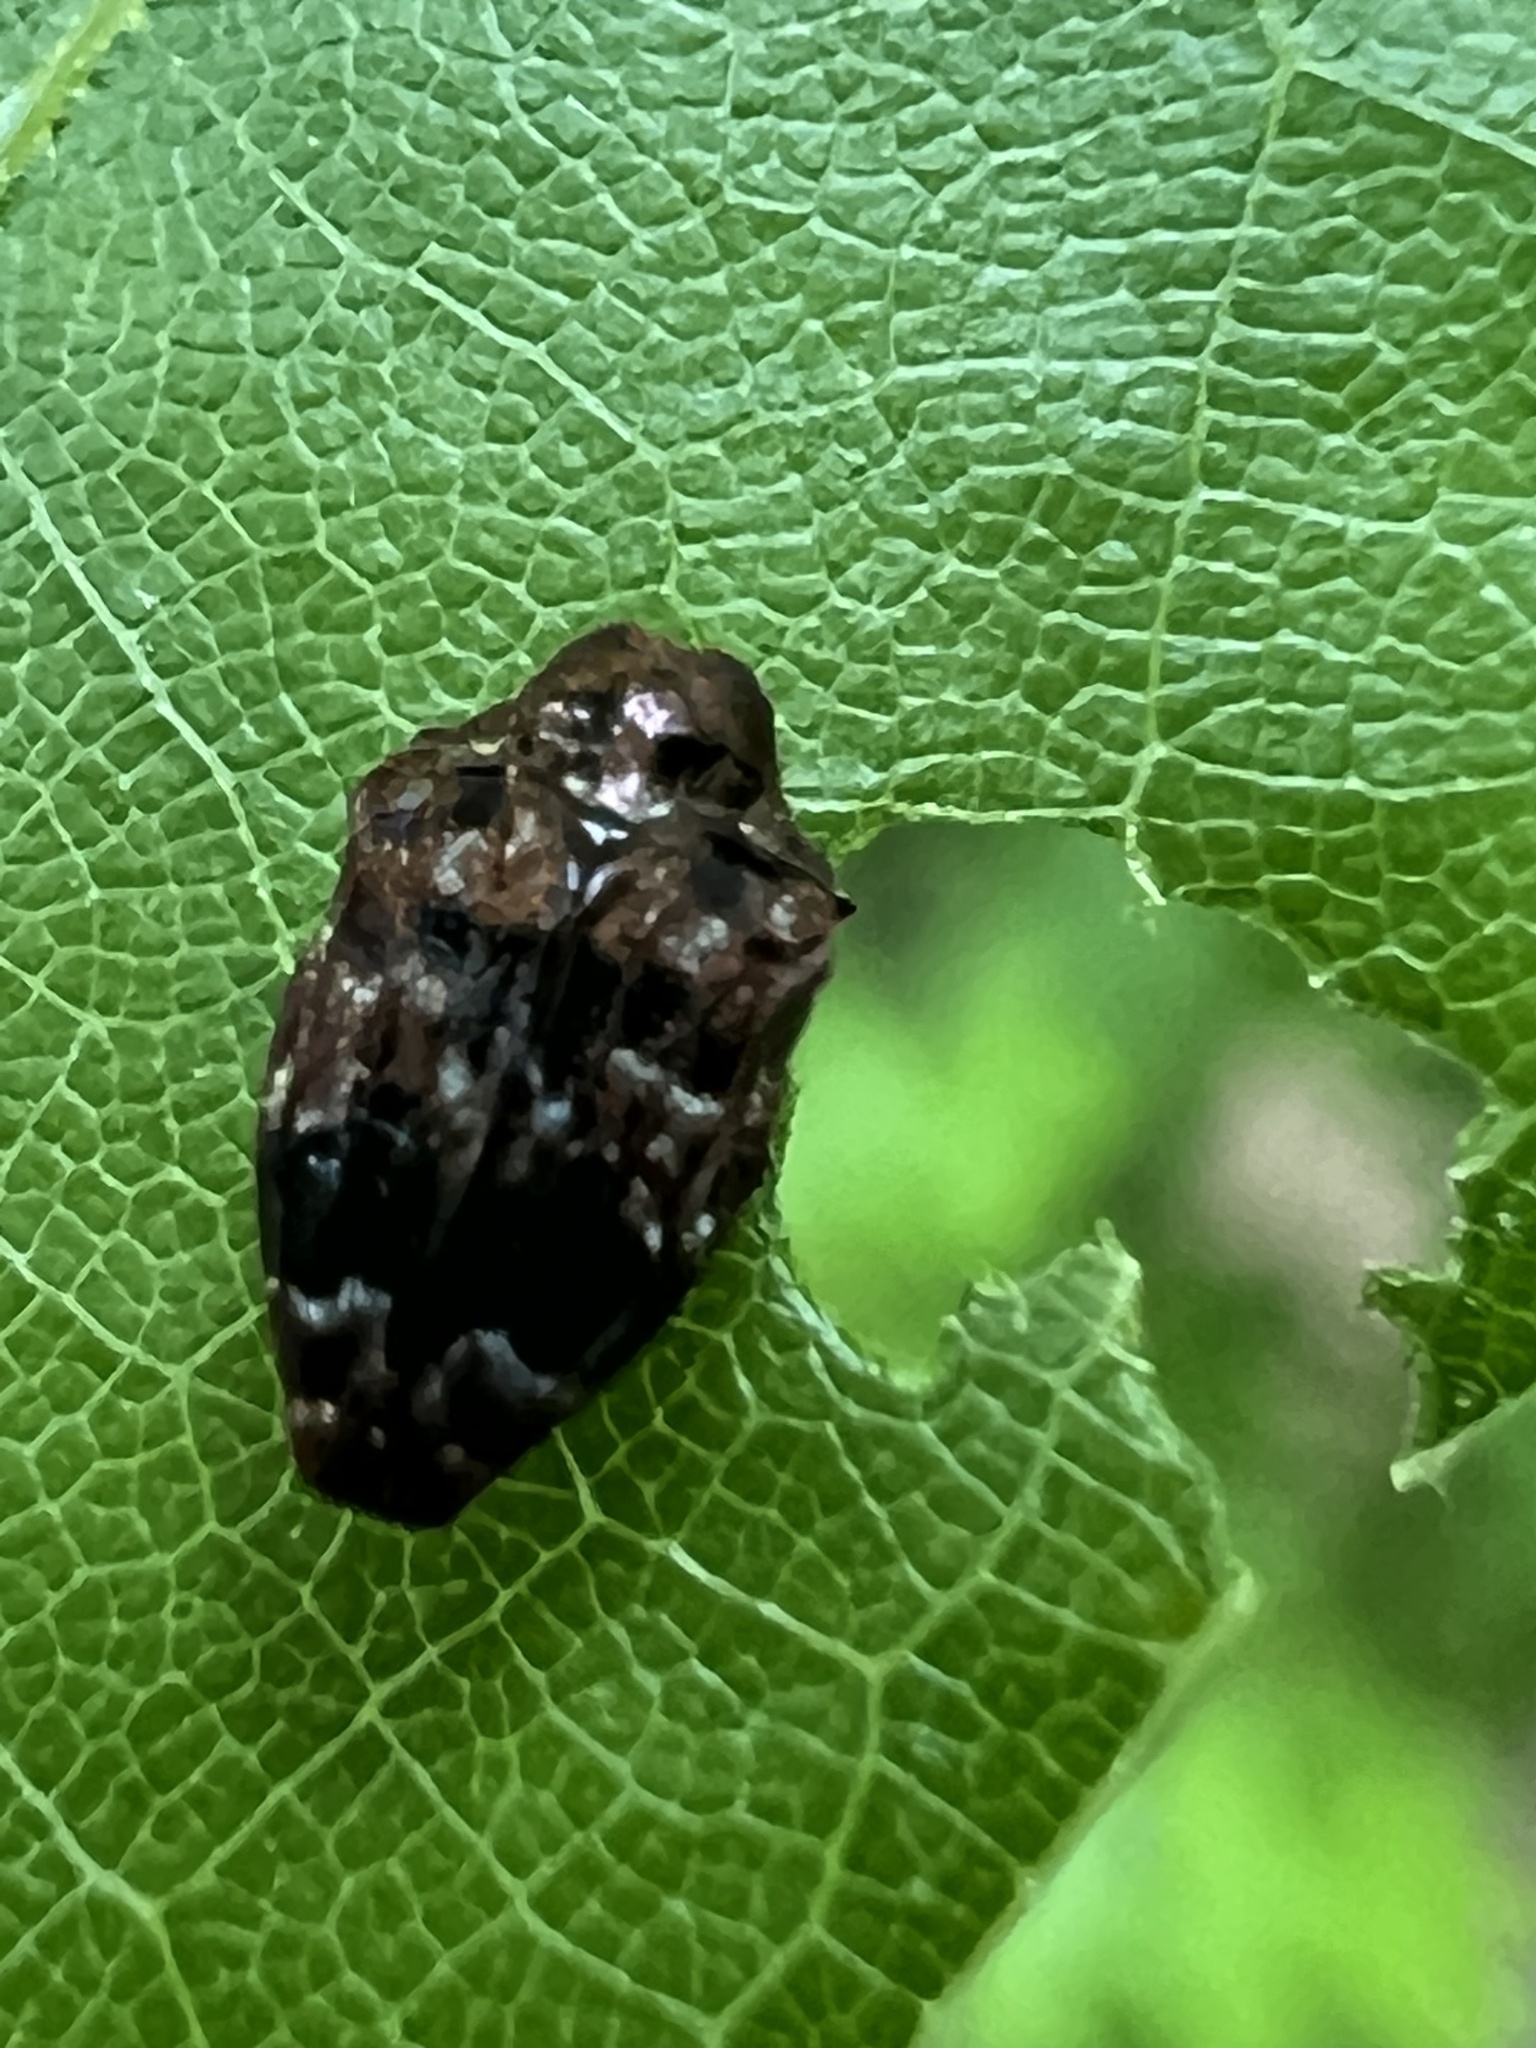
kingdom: Animalia
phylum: Arthropoda
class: Insecta
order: Coleoptera
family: Buprestidae
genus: Brachys
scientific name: Brachys ovatus
